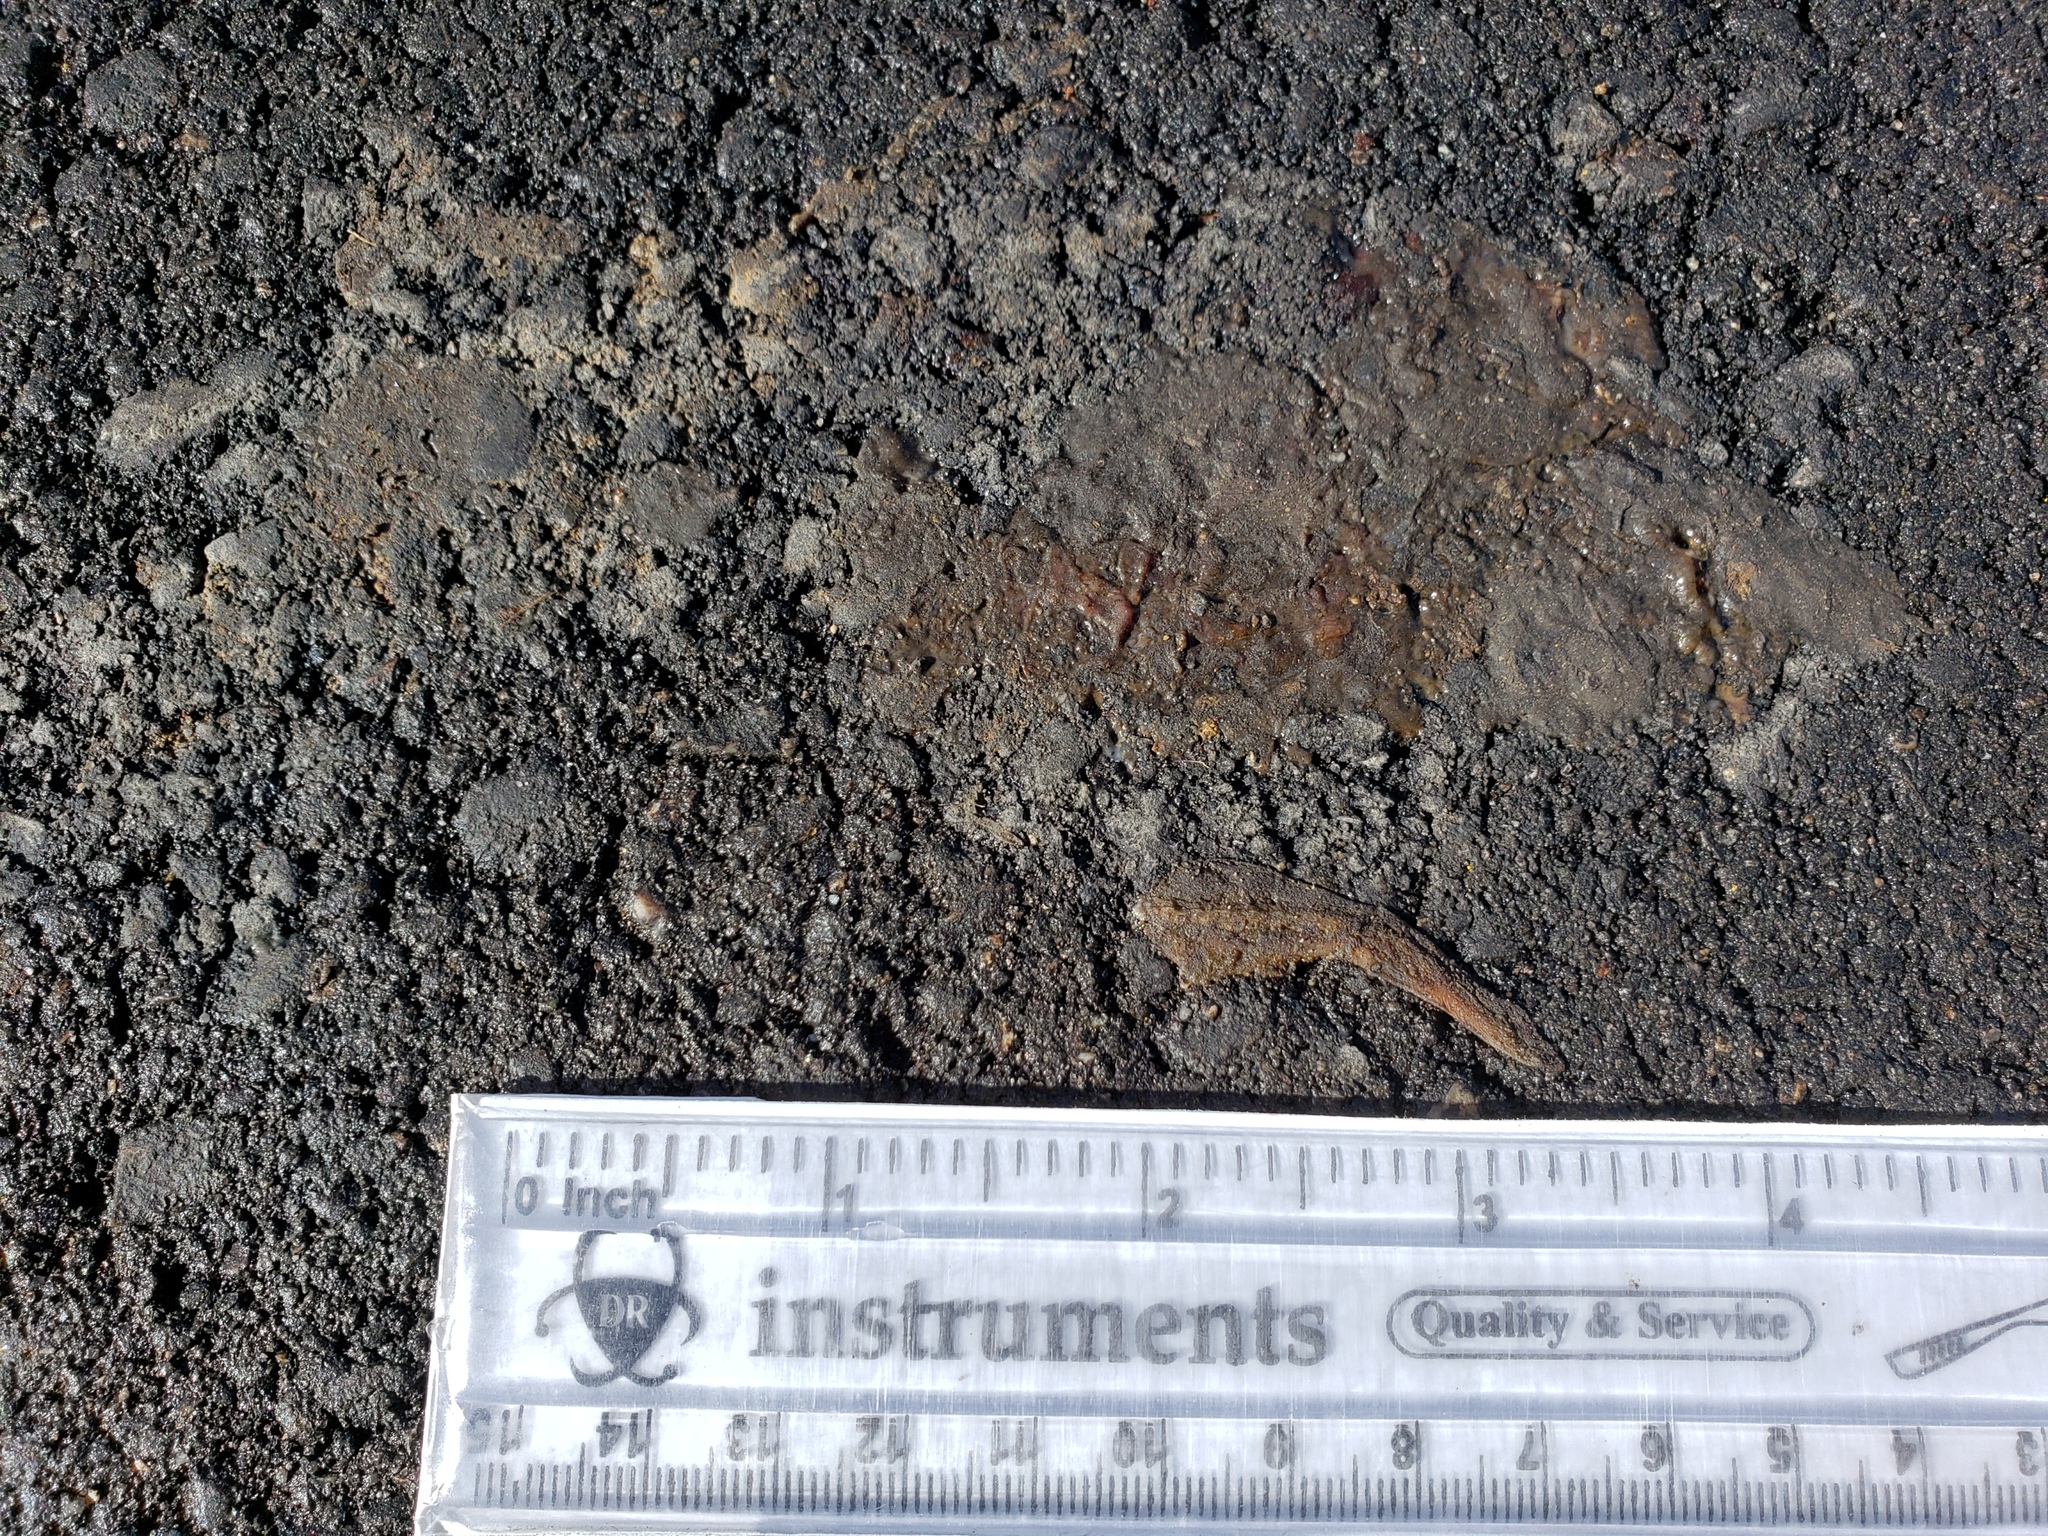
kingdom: Animalia
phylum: Chordata
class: Amphibia
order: Caudata
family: Salamandridae
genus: Taricha
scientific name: Taricha
